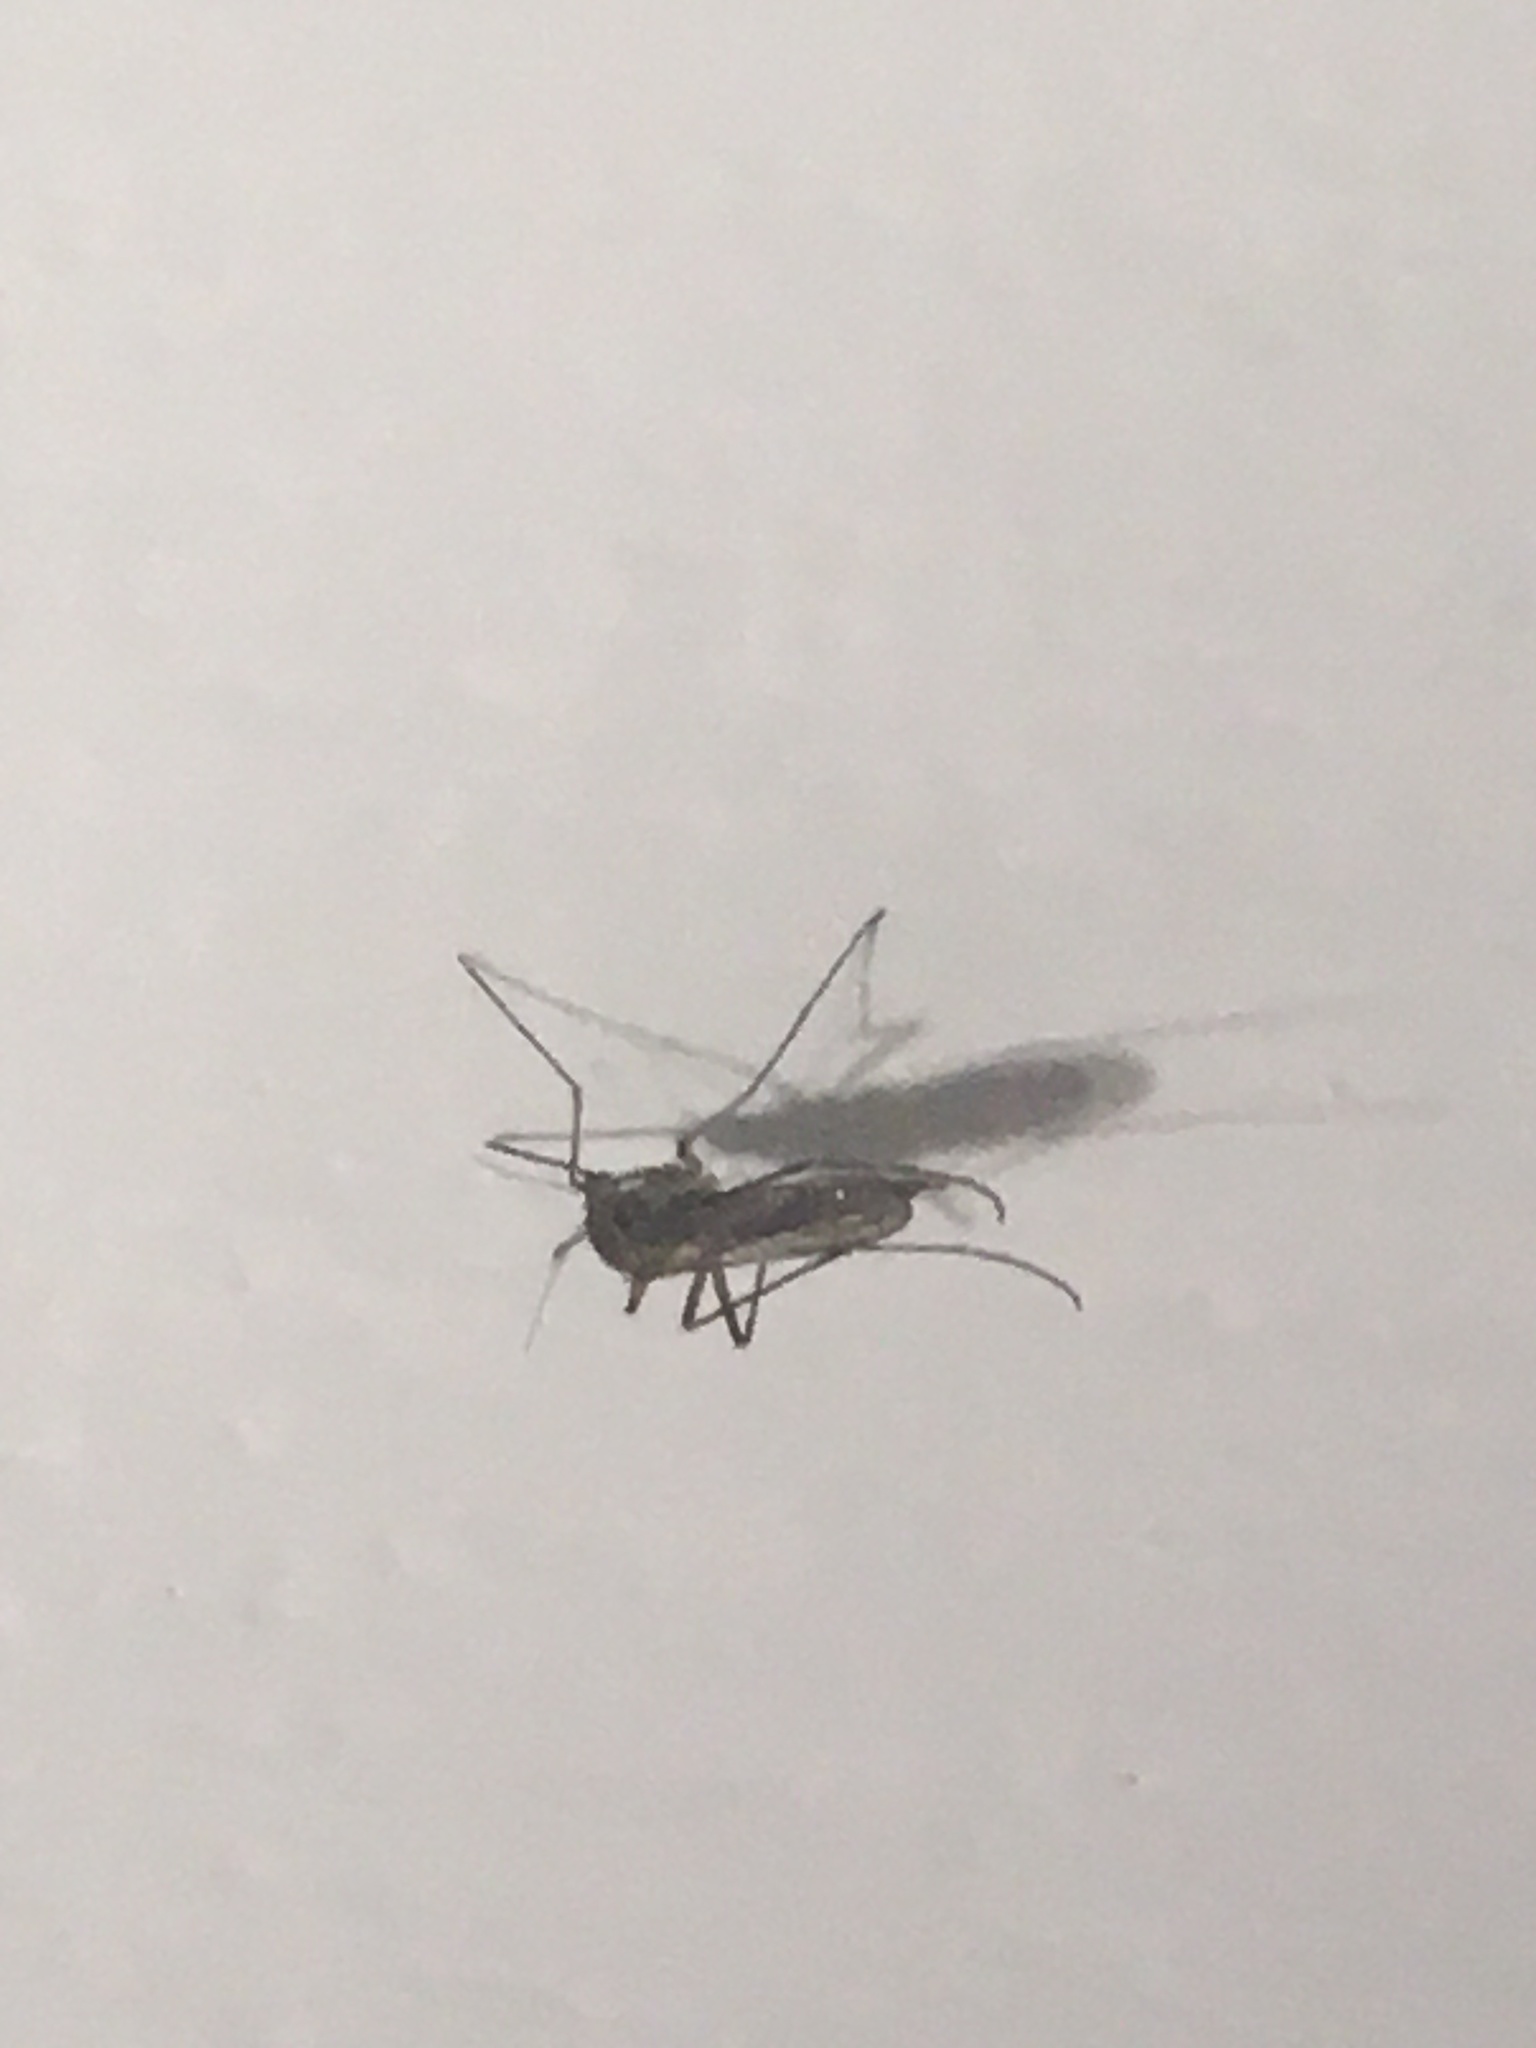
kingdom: Animalia
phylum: Arthropoda
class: Insecta
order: Diptera
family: Culicidae
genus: Aedes
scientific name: Aedes
